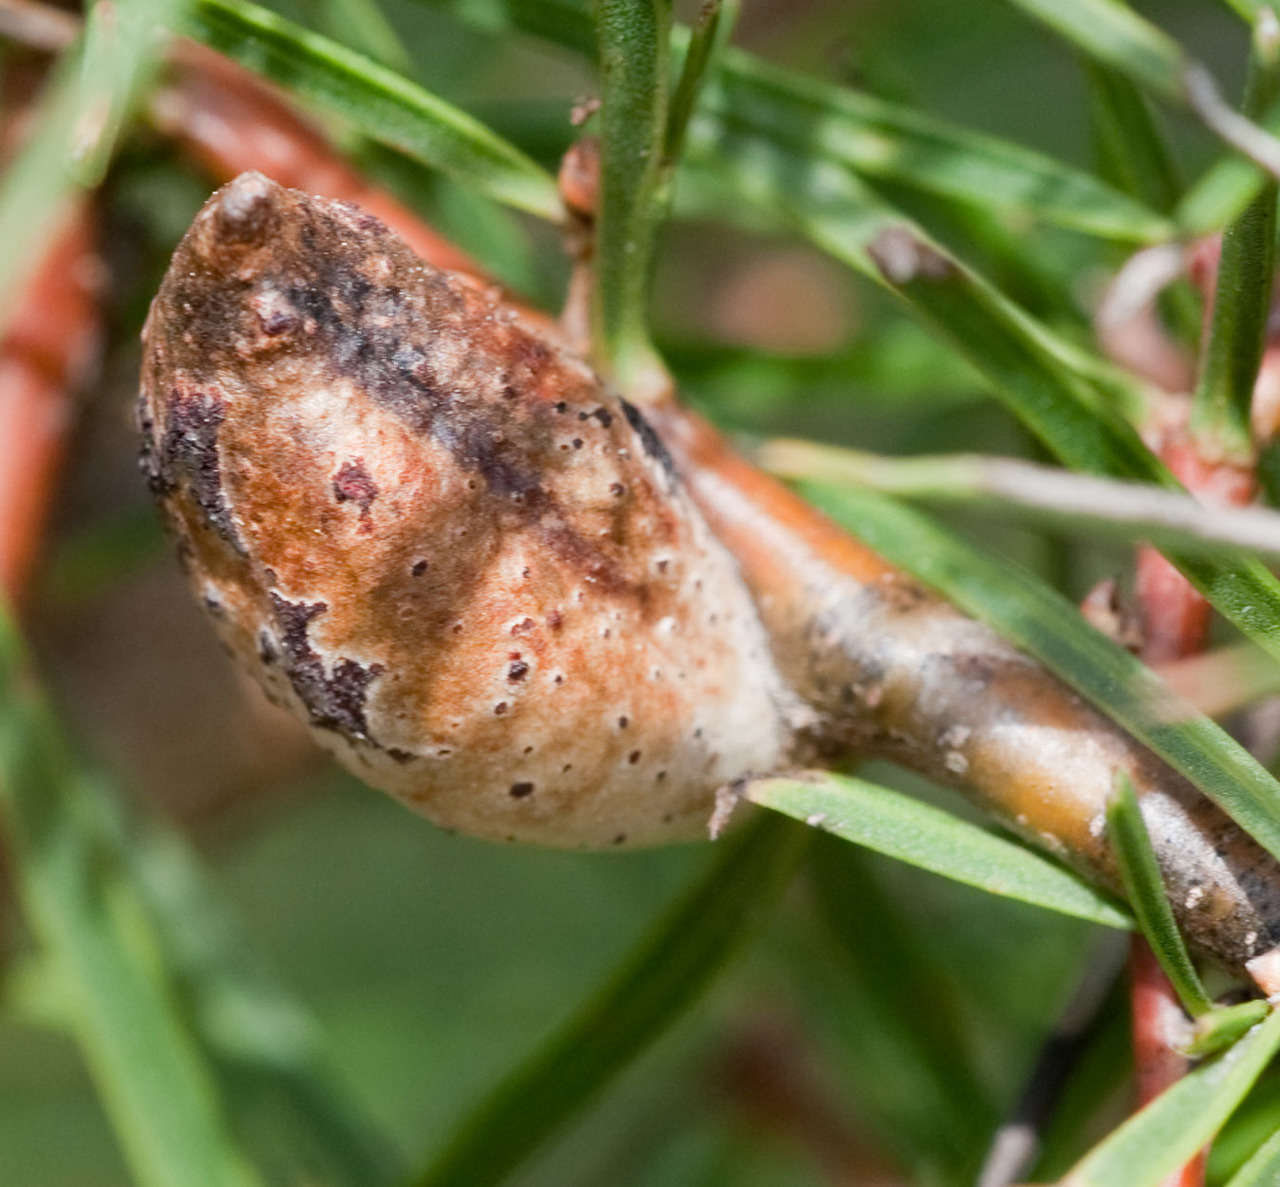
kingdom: Plantae
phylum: Tracheophyta
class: Magnoliopsida
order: Proteales
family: Proteaceae
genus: Hakea
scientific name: Hakea ulicina
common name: Furze hakea
